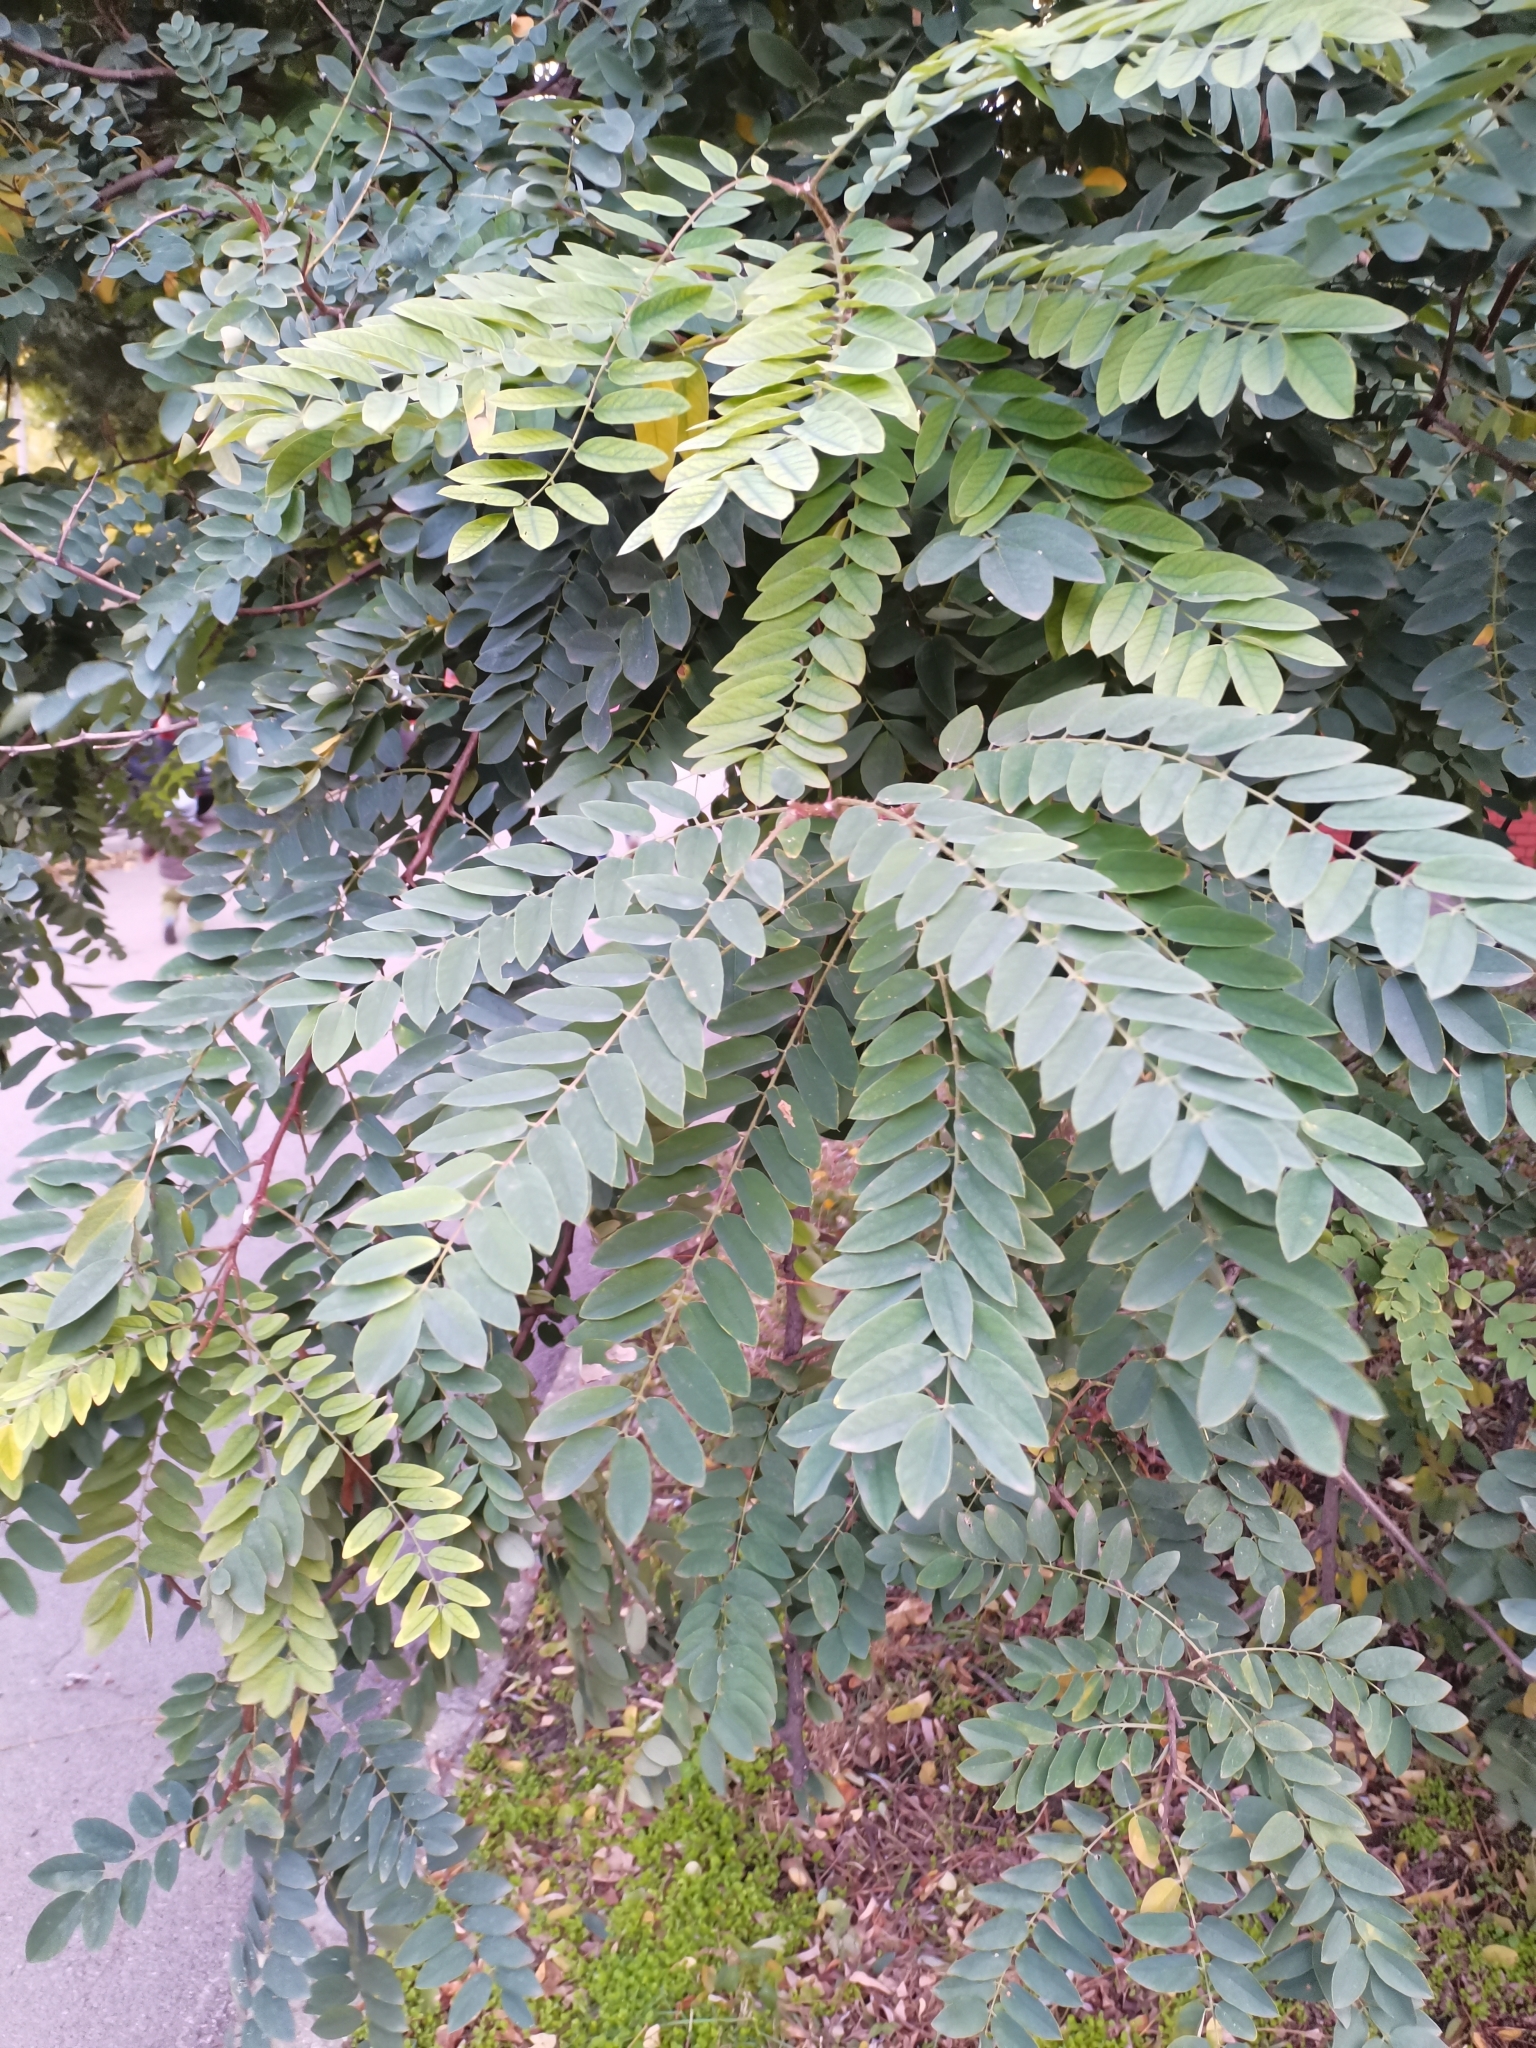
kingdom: Plantae
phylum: Tracheophyta
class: Magnoliopsida
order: Fabales
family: Fabaceae
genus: Robinia
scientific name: Robinia pseudoacacia
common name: Black locust
